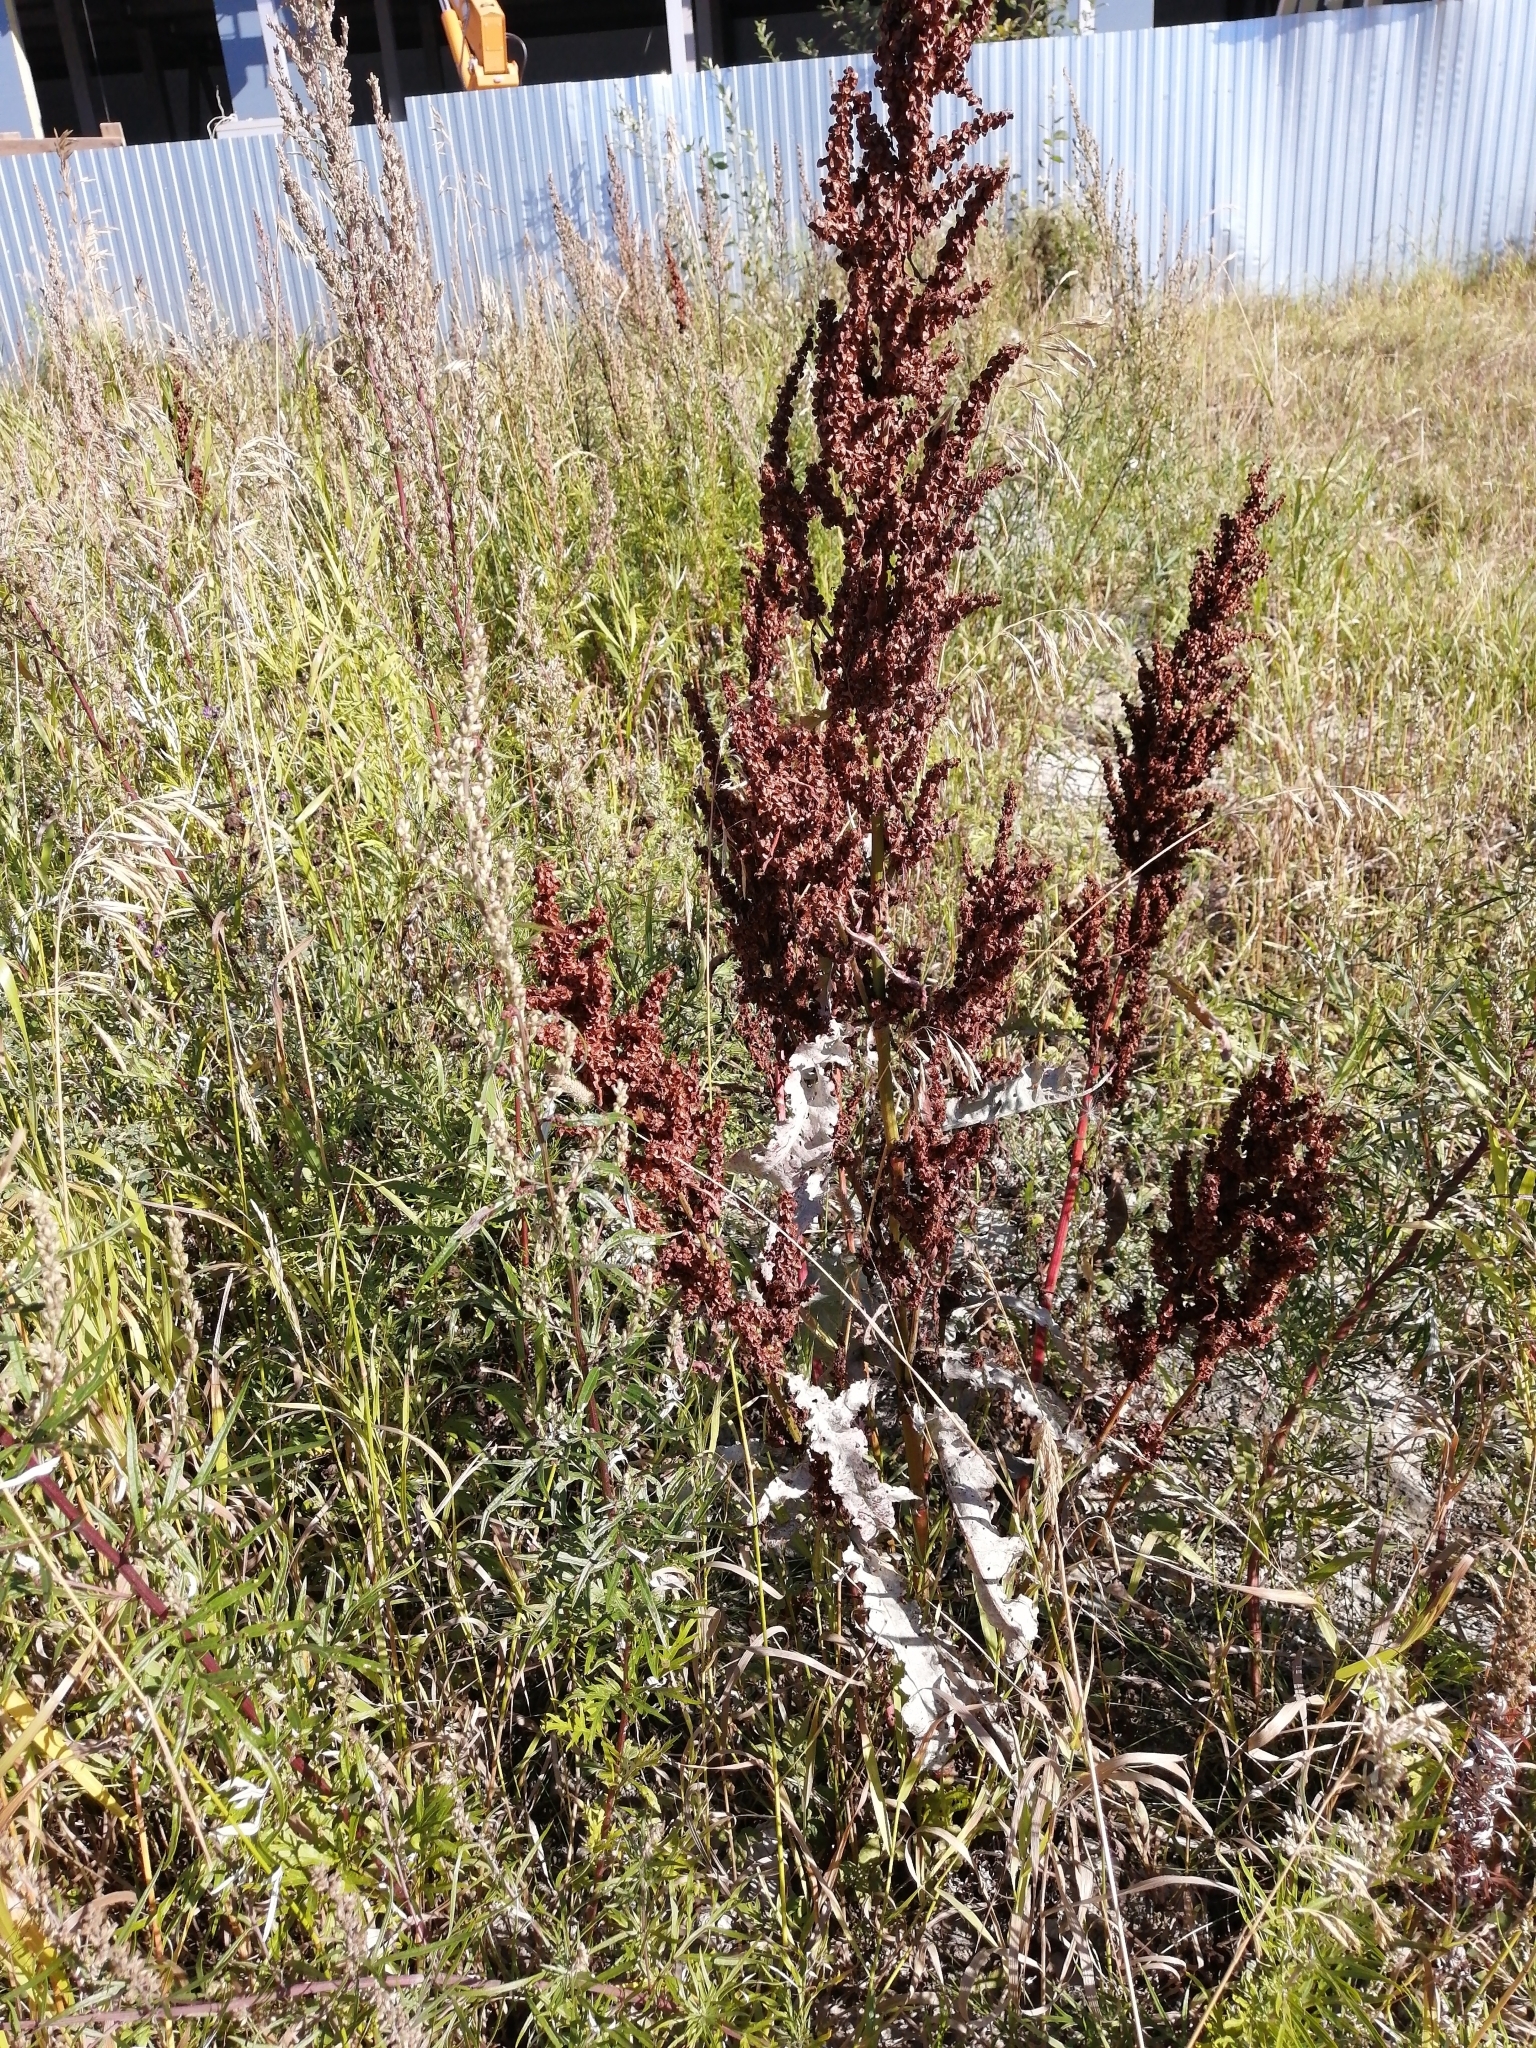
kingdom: Plantae
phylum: Tracheophyta
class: Magnoliopsida
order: Caryophyllales
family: Polygonaceae
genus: Rumex
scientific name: Rumex pseudonatronatus
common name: Field dock
